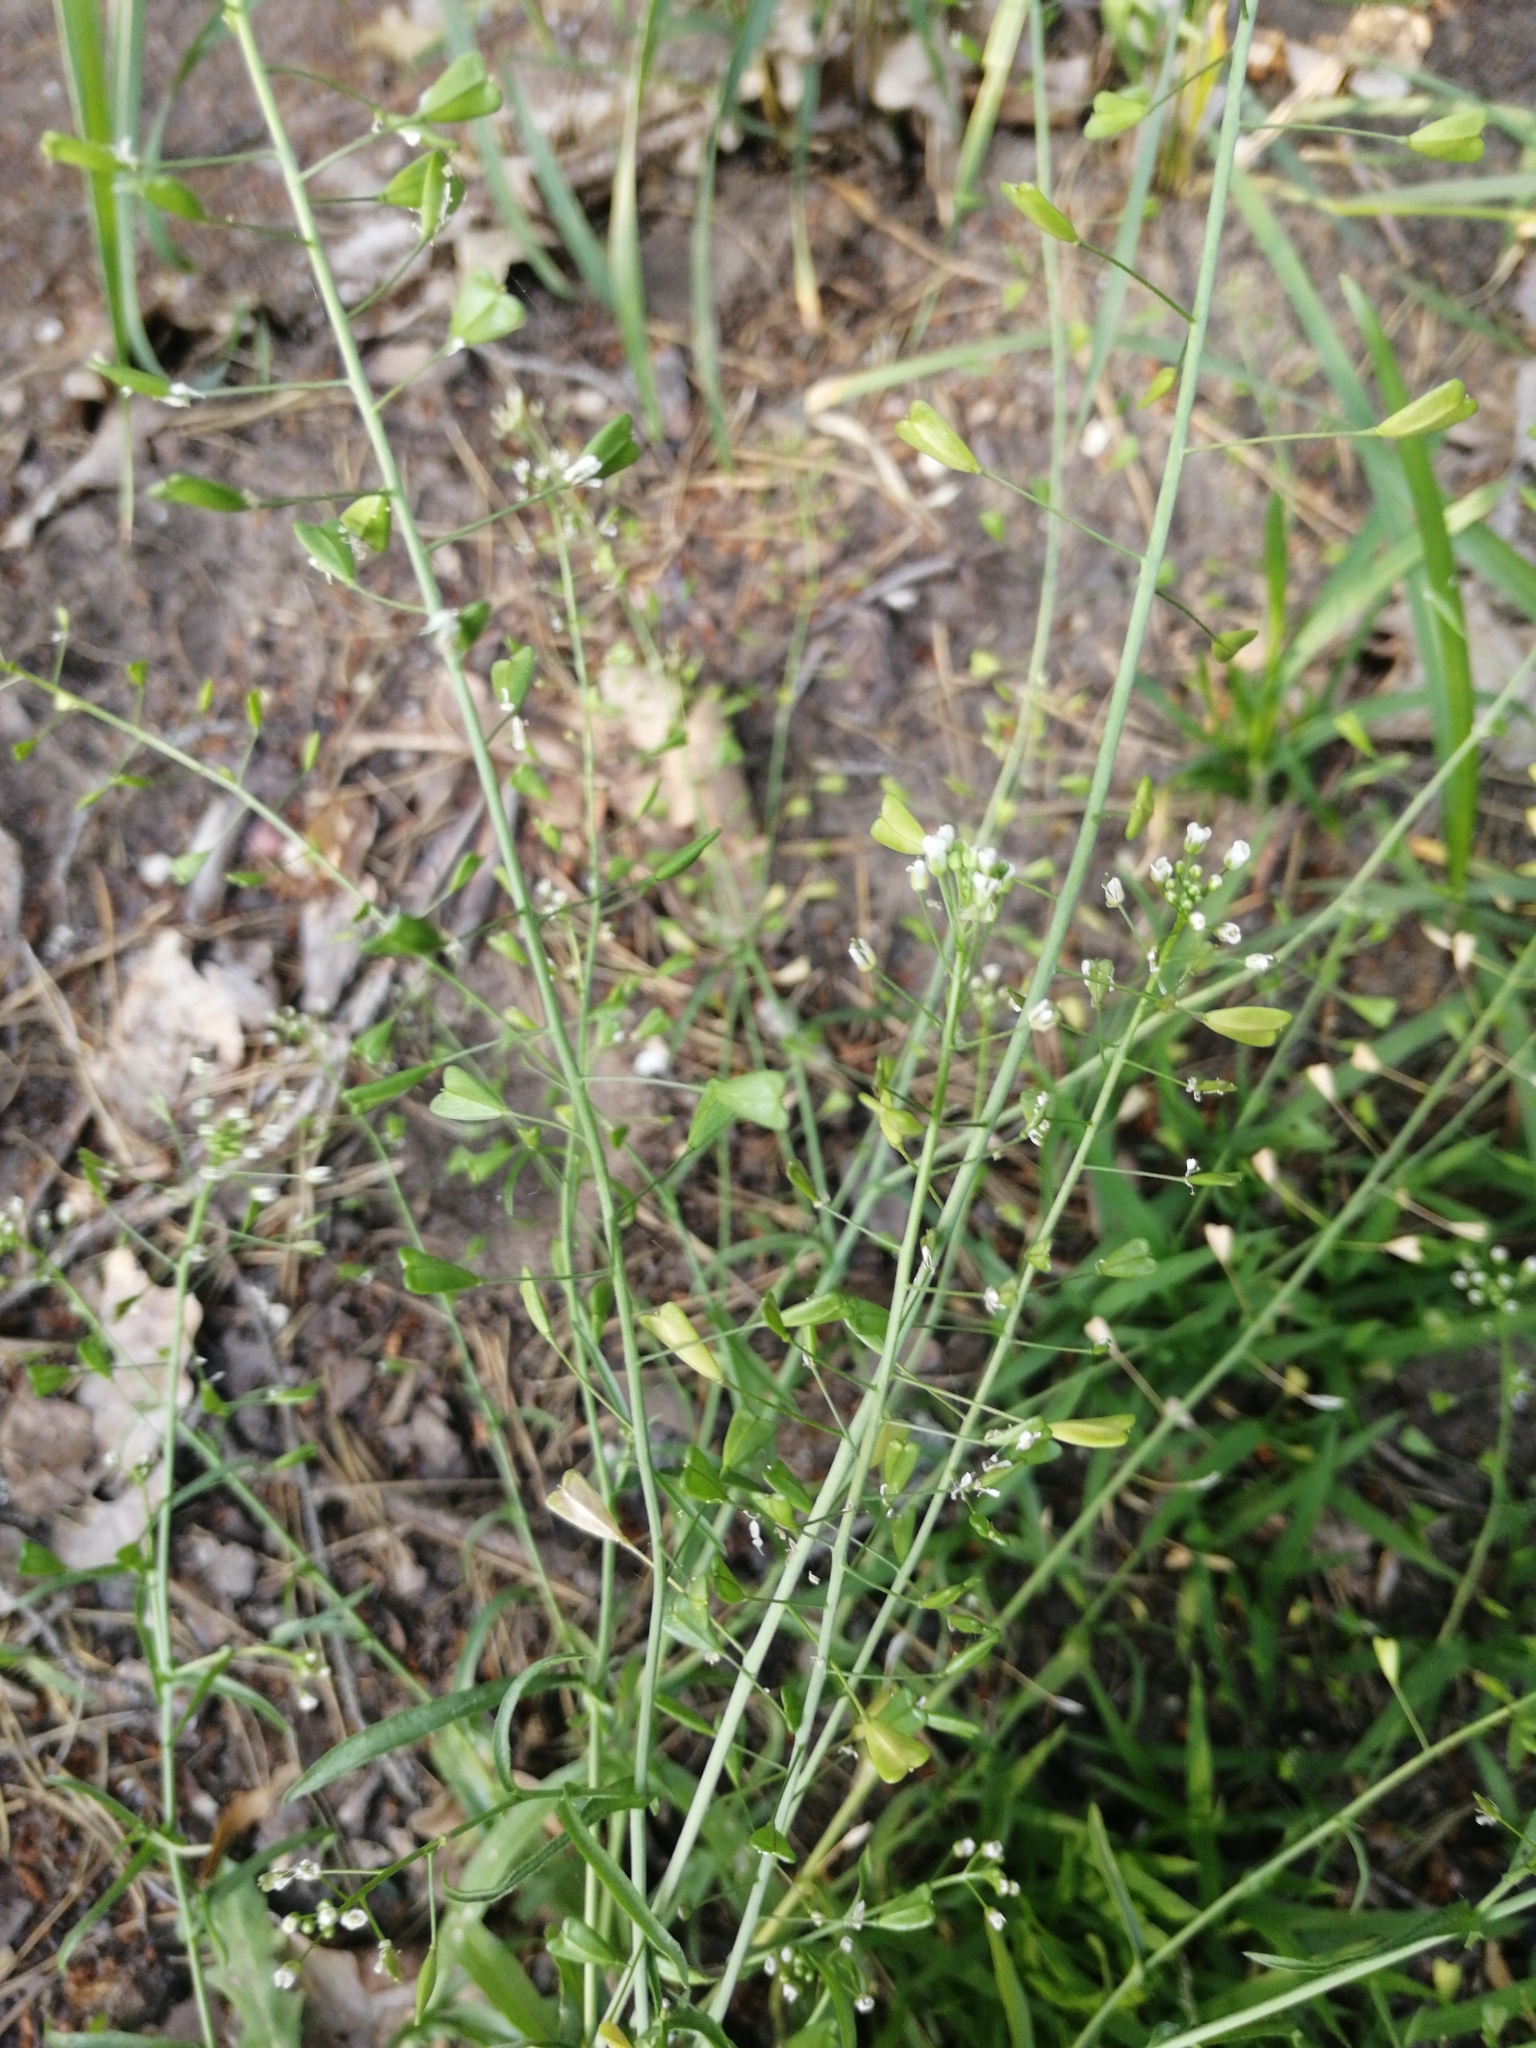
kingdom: Plantae
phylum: Tracheophyta
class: Magnoliopsida
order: Brassicales
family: Brassicaceae
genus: Capsella
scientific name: Capsella bursa-pastoris
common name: Shepherd's purse
